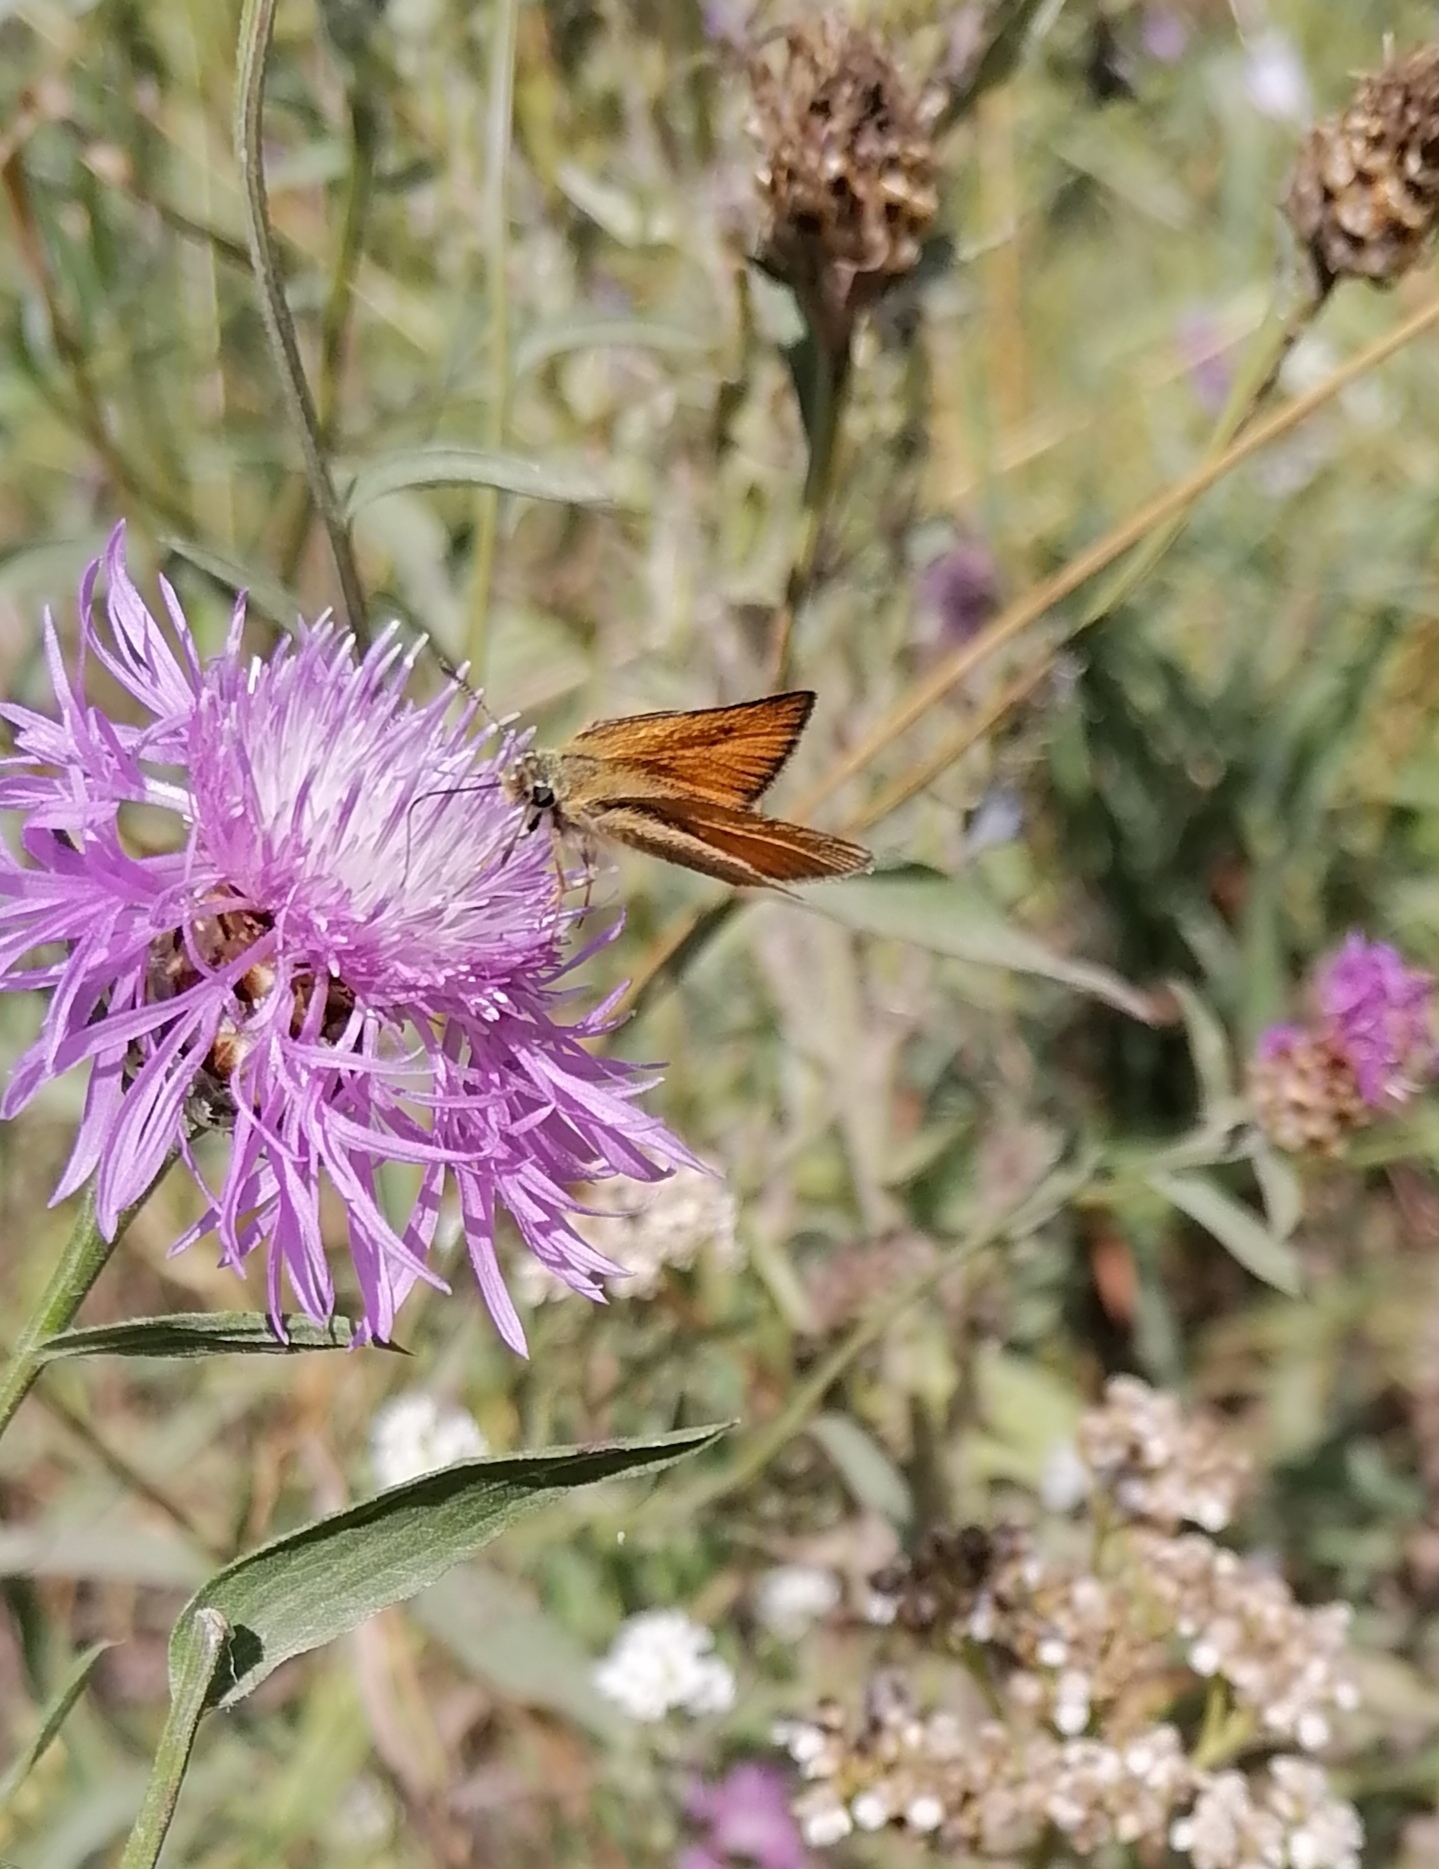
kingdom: Animalia
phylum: Arthropoda
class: Insecta
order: Lepidoptera
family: Hesperiidae
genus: Thymelicus
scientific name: Thymelicus lineola
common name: Essex skipper
